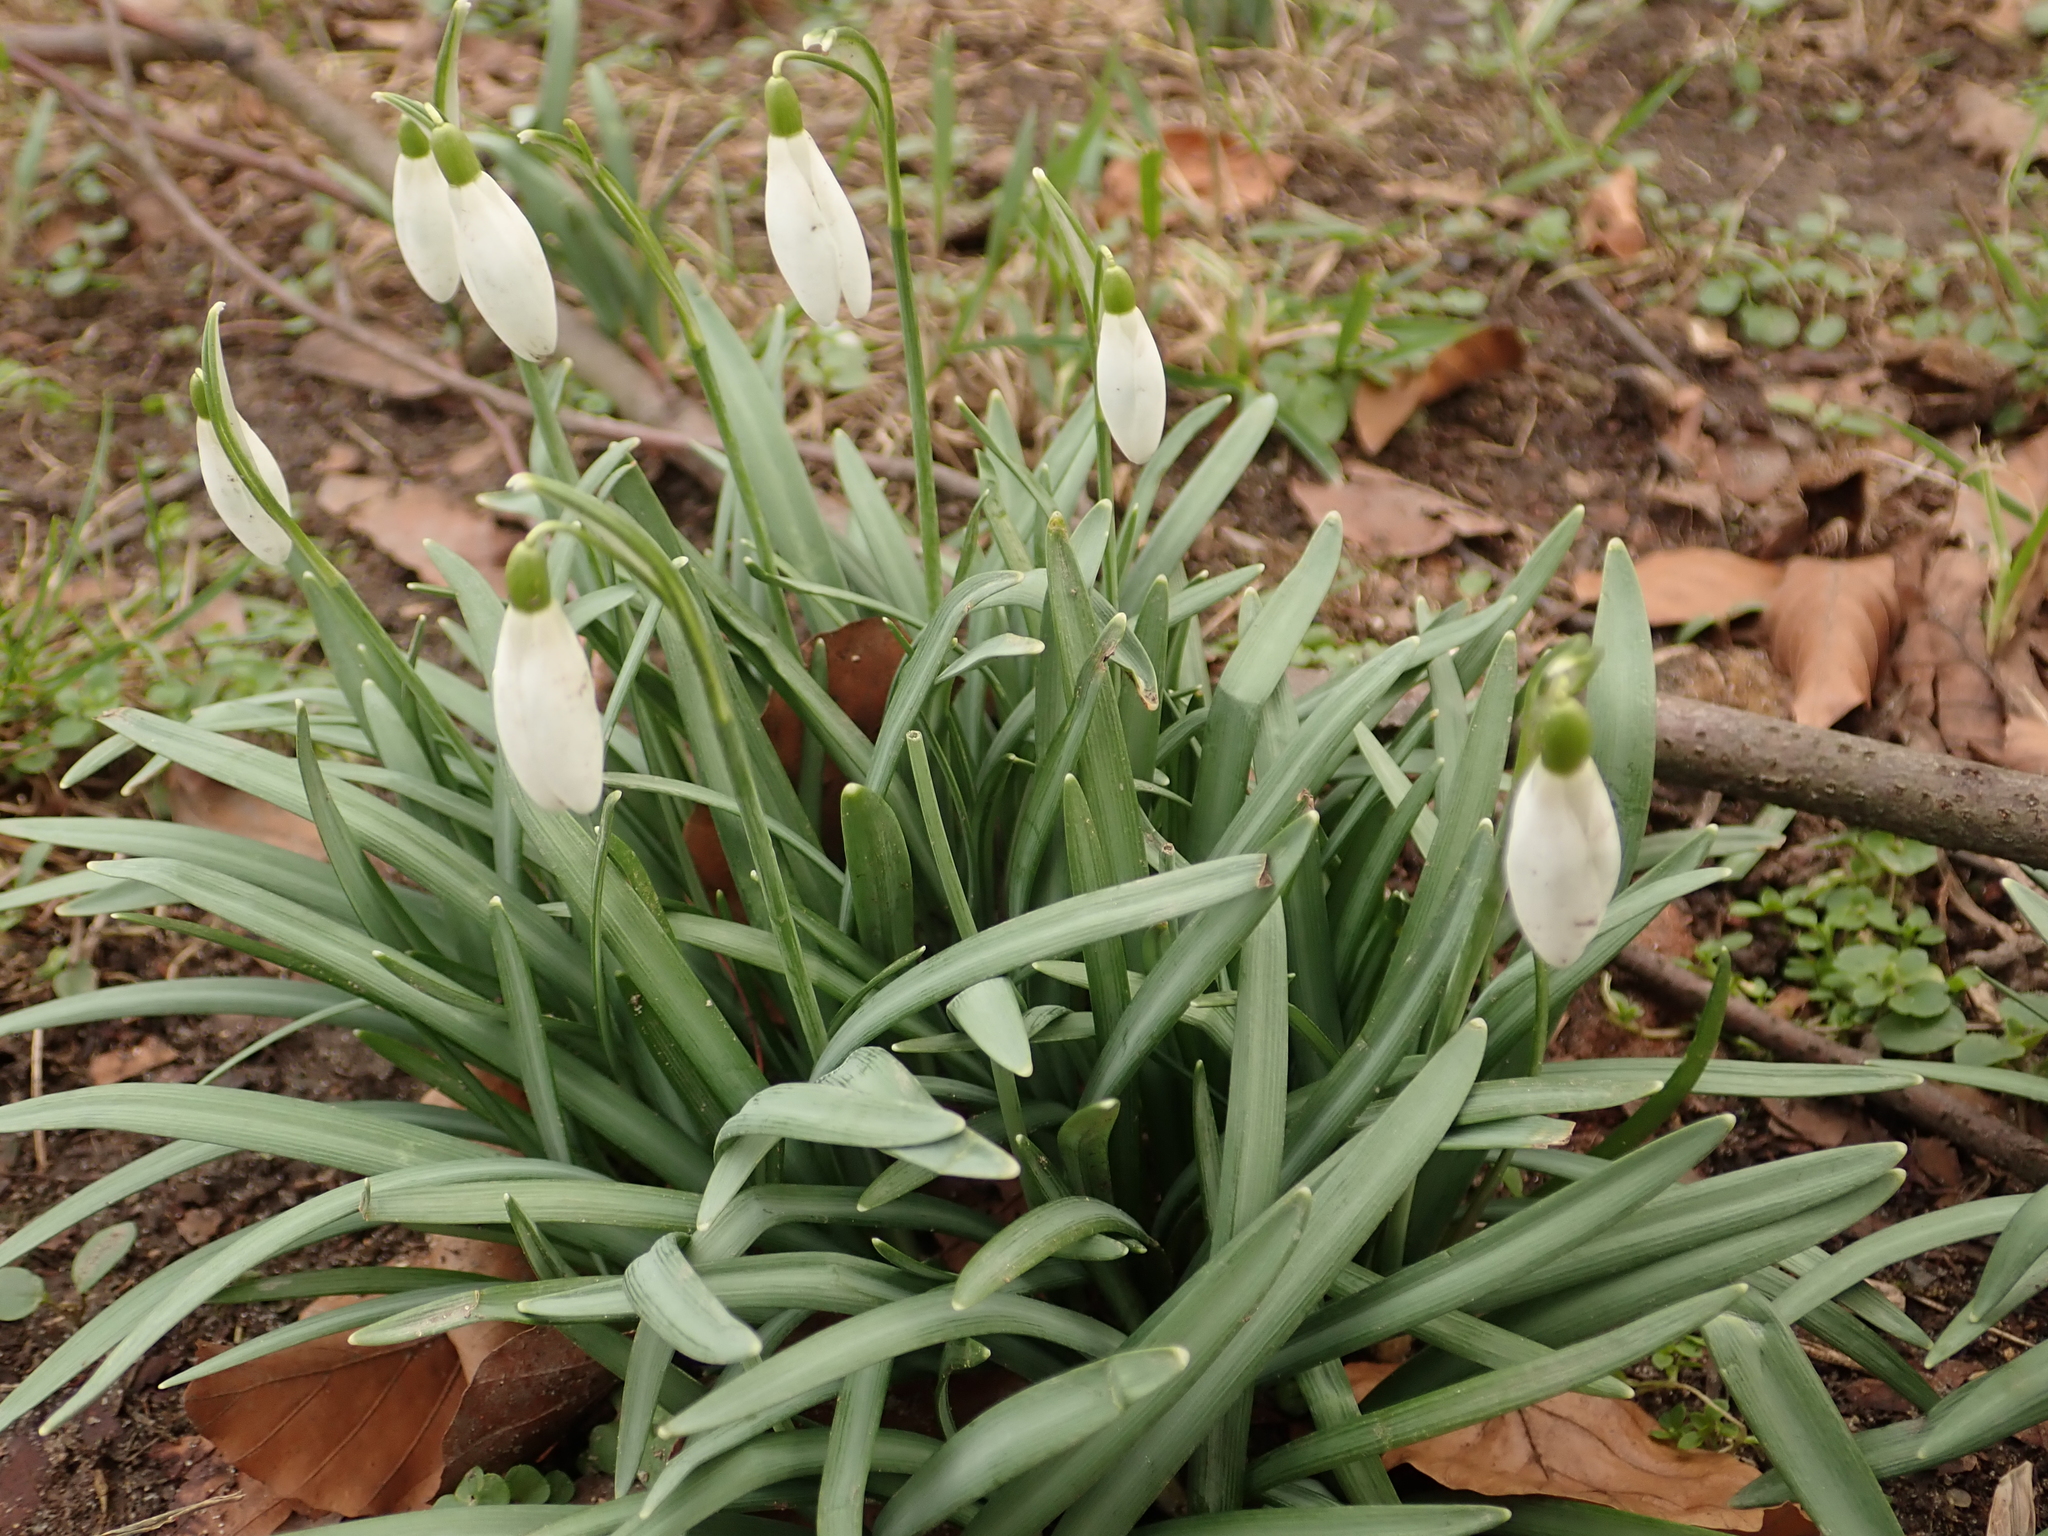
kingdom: Plantae
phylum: Tracheophyta
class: Liliopsida
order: Asparagales
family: Amaryllidaceae
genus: Galanthus
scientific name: Galanthus nivalis
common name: Snowdrop
